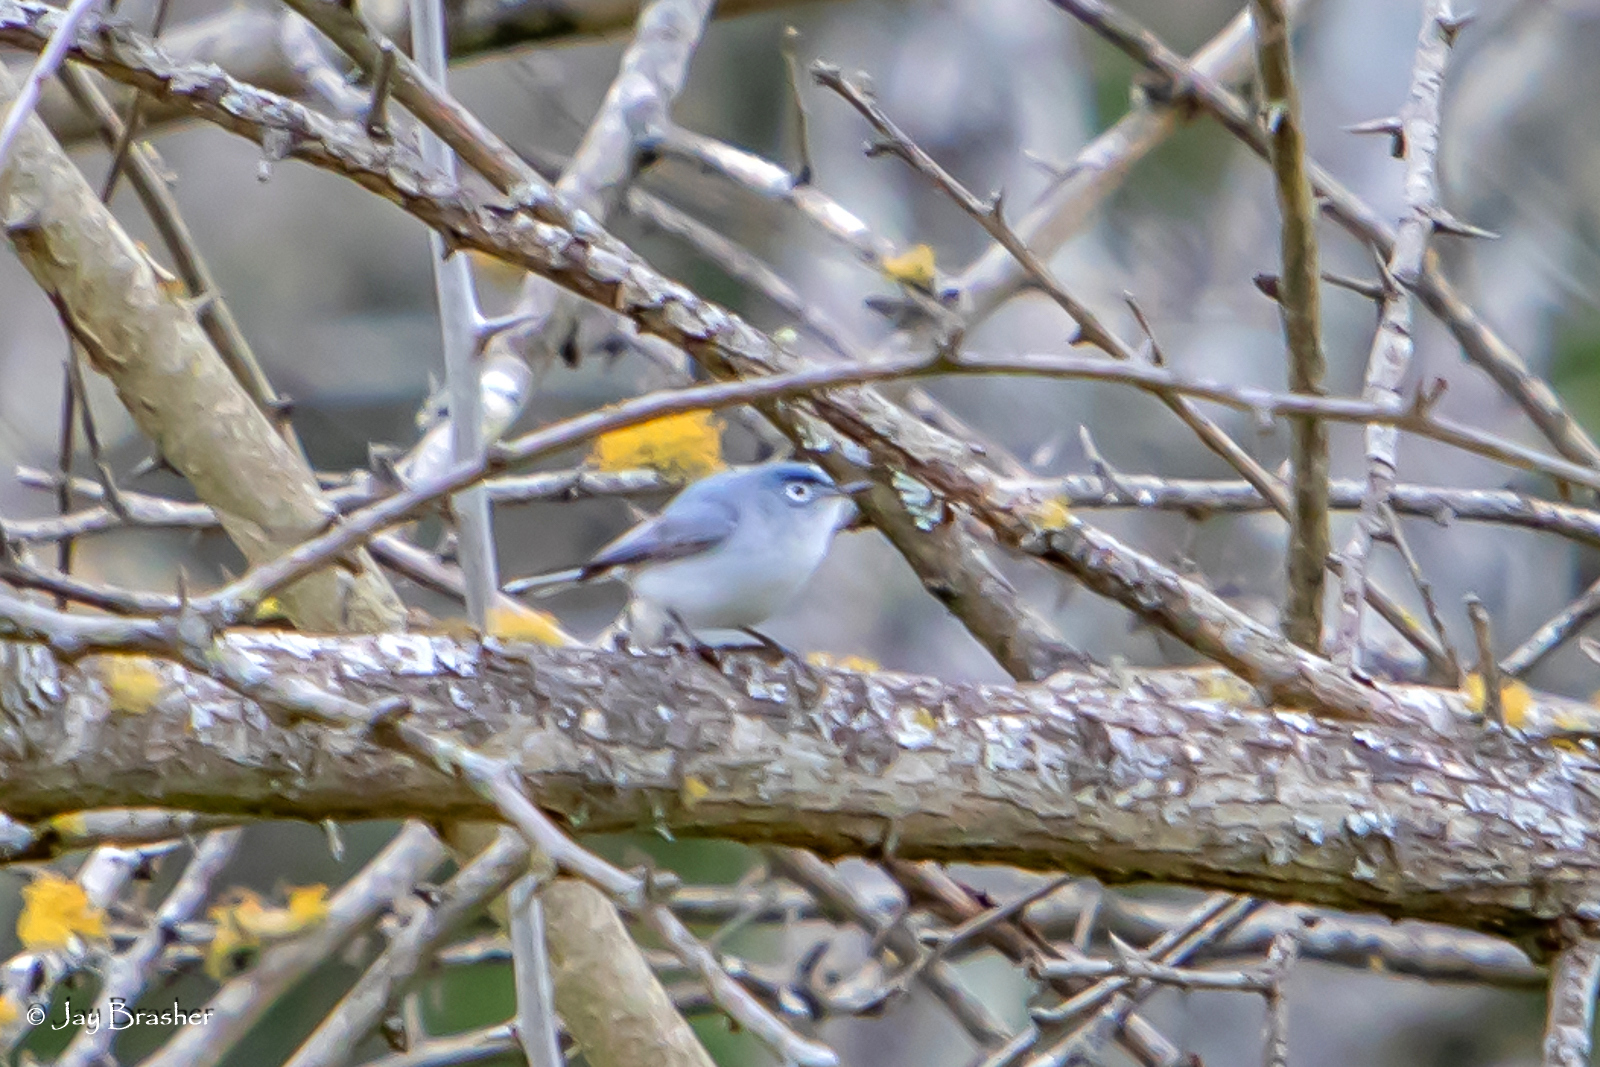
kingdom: Animalia
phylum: Chordata
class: Aves
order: Passeriformes
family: Polioptilidae
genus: Polioptila
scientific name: Polioptila caerulea
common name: Blue-gray gnatcatcher
